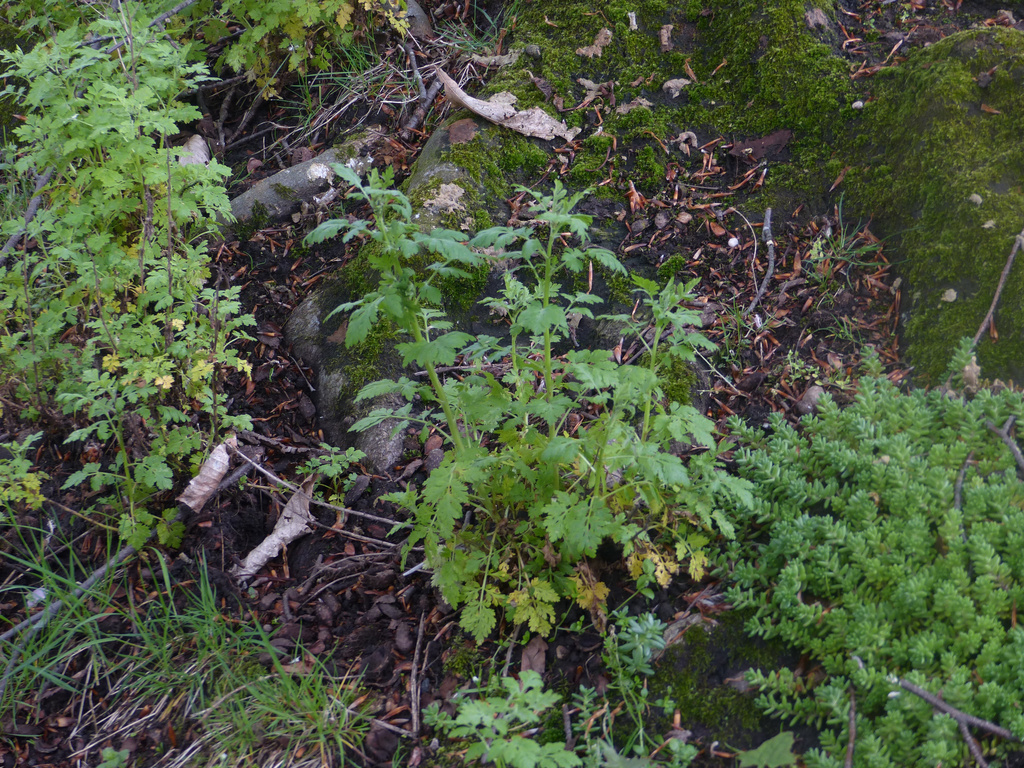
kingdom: Plantae
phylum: Tracheophyta
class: Magnoliopsida
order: Asterales
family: Asteraceae
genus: Tanacetum
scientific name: Tanacetum parthenium
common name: Feverfew
